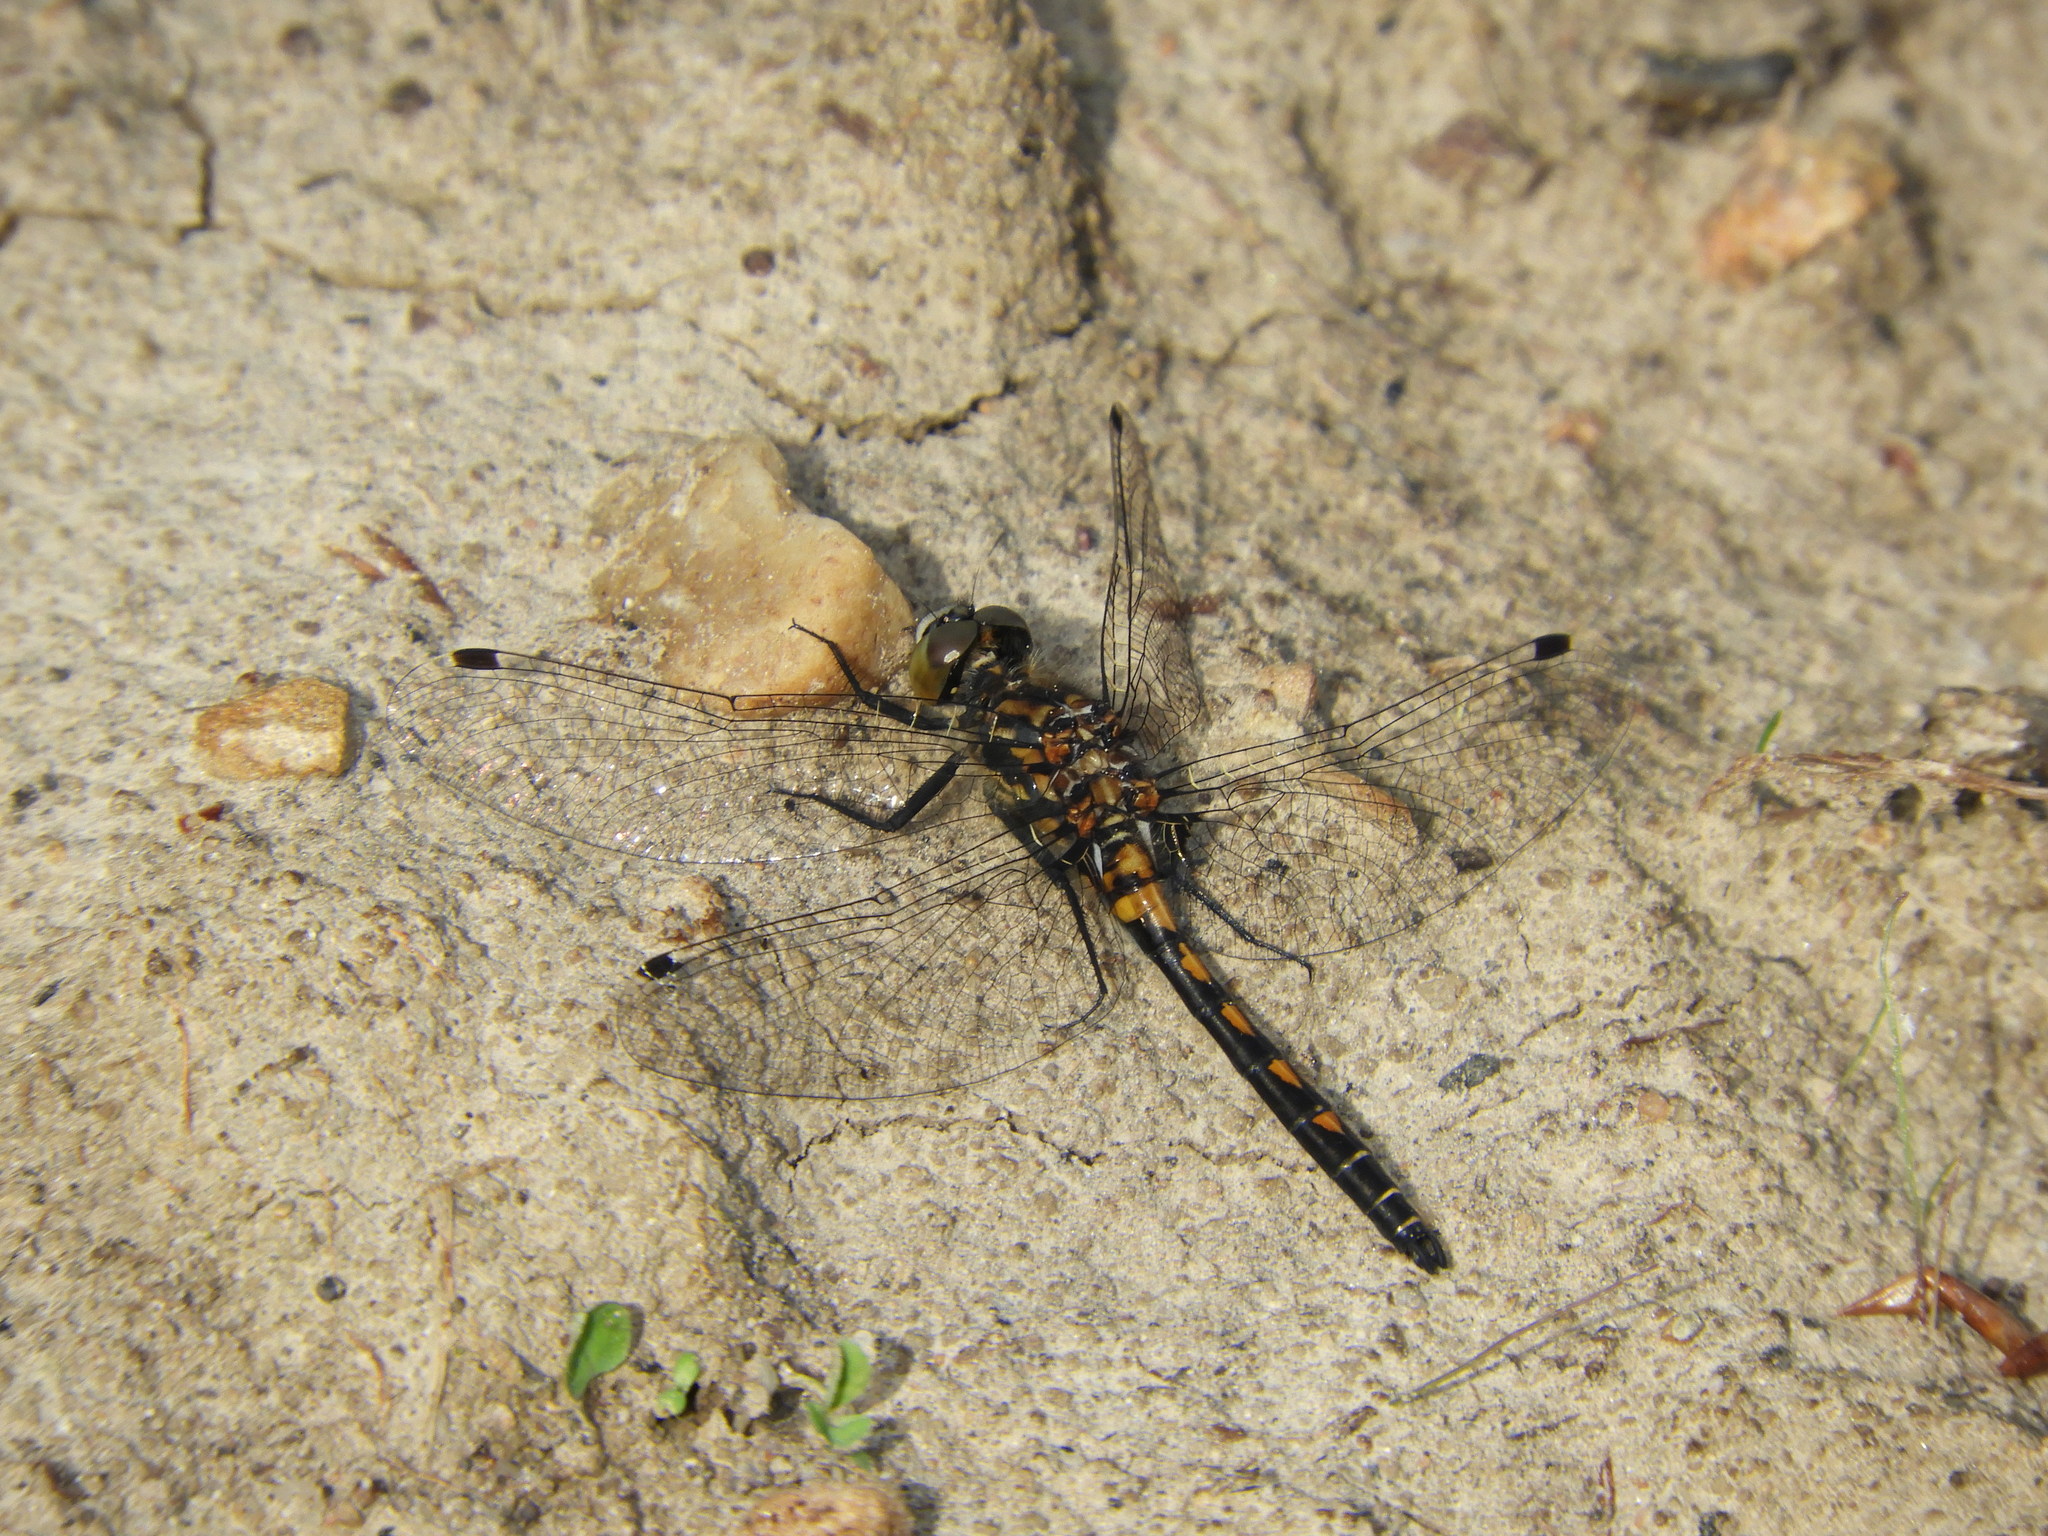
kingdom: Animalia
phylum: Arthropoda
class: Insecta
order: Odonata
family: Libellulidae
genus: Leucorrhinia
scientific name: Leucorrhinia hudsonica
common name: Hudsonian whiteface
